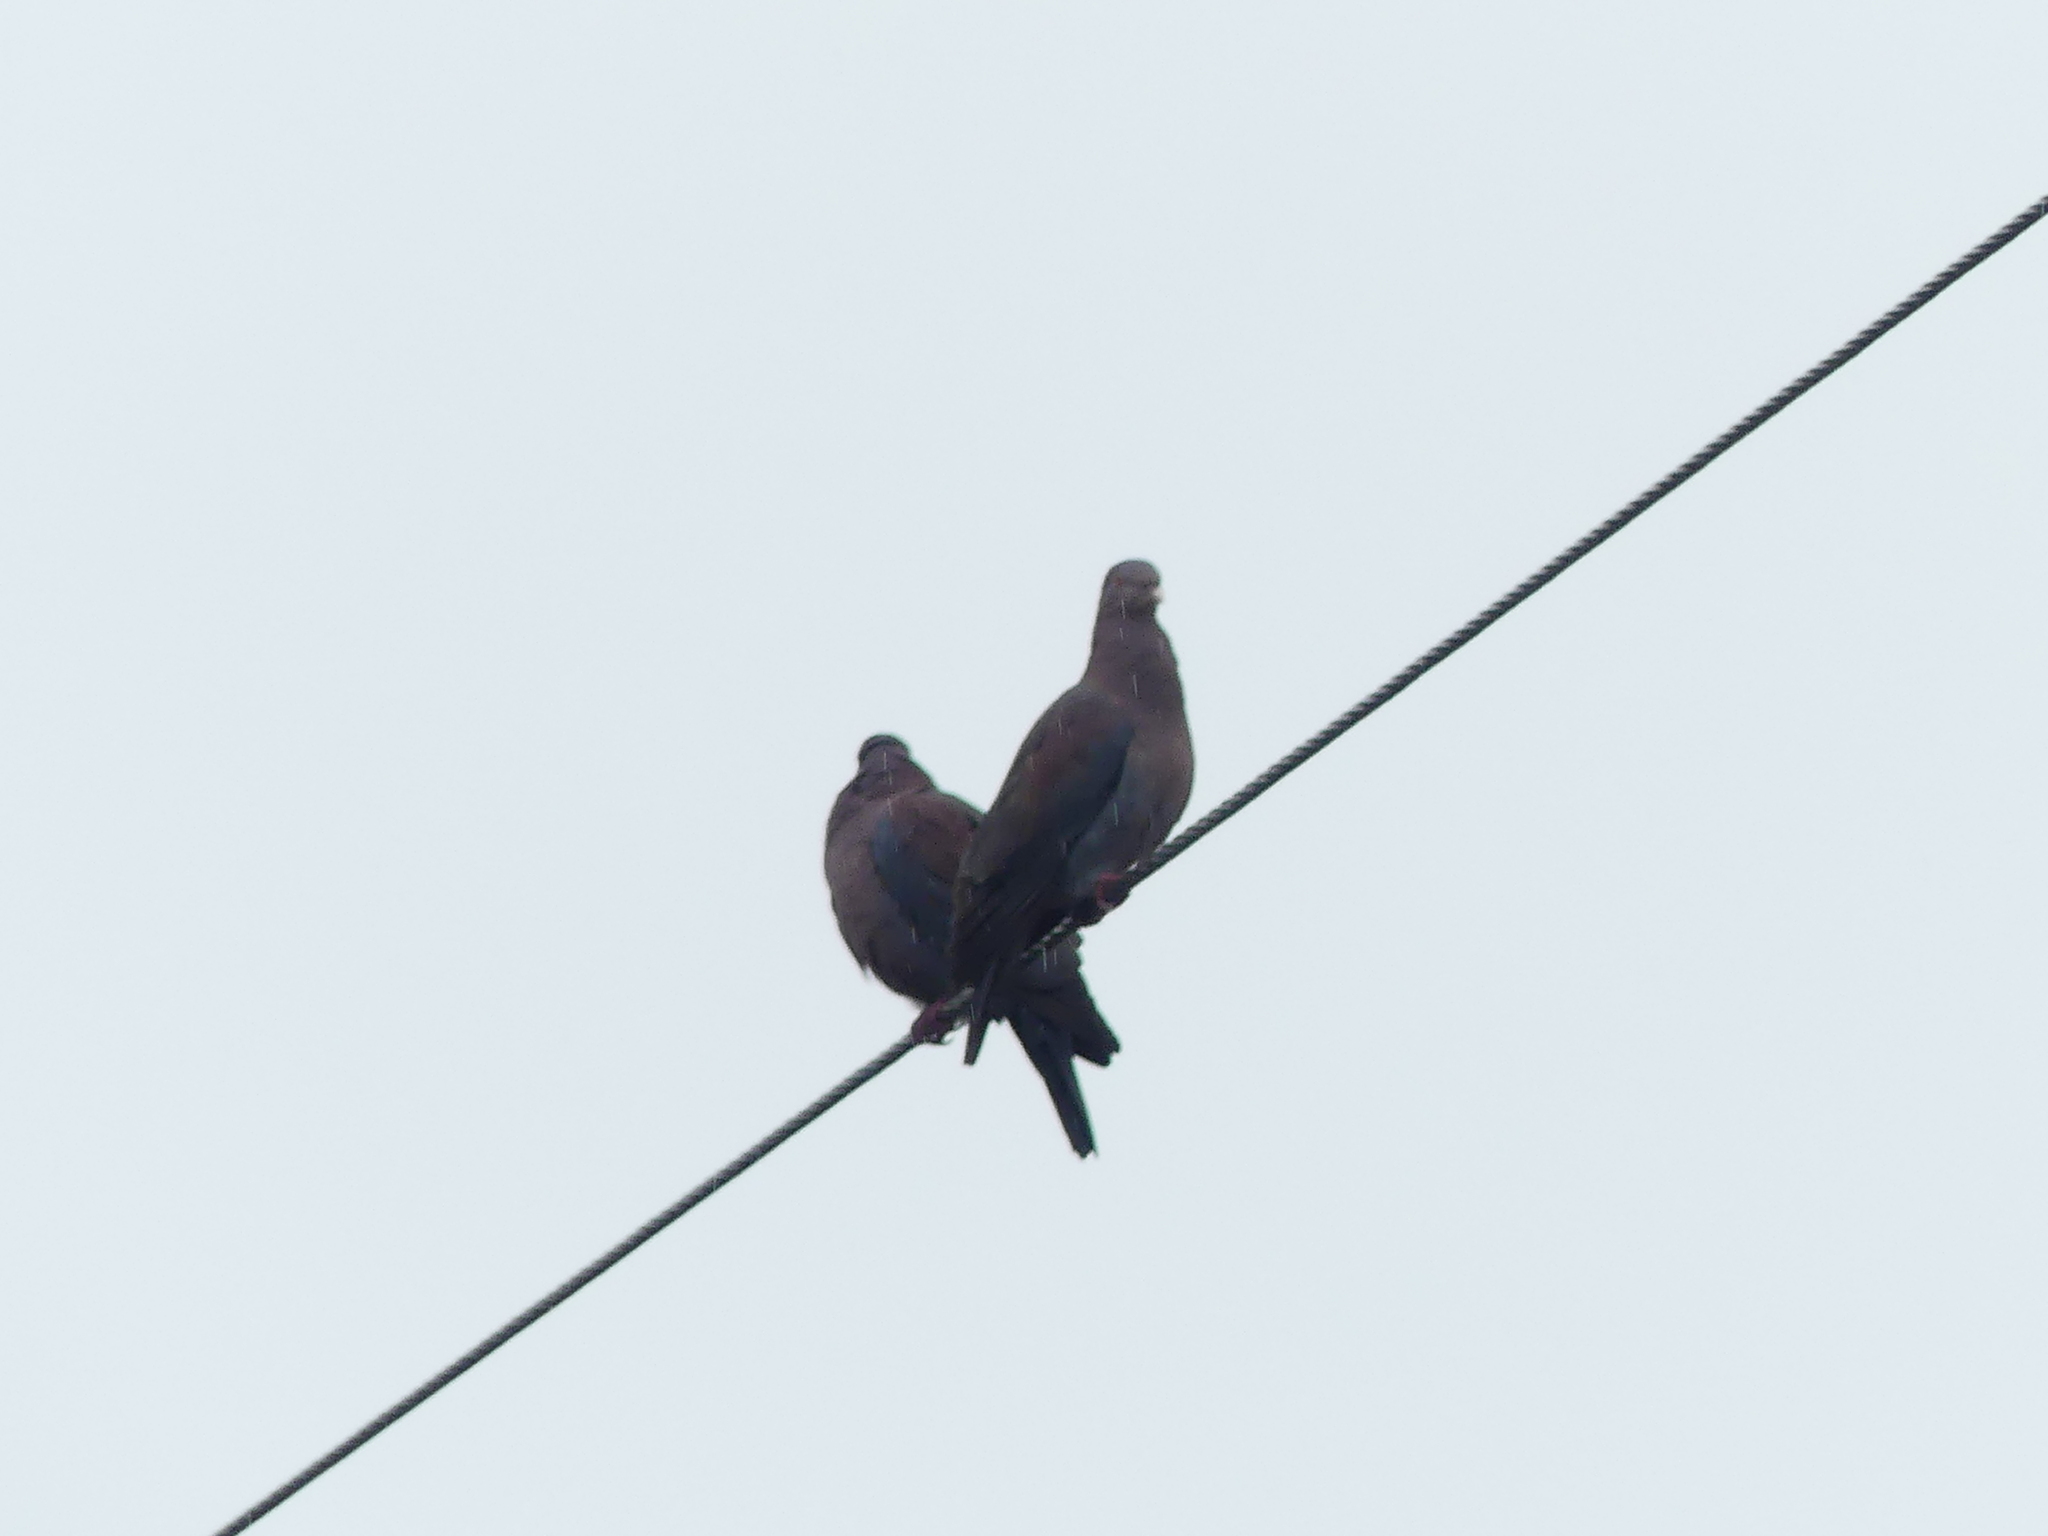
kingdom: Animalia
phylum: Chordata
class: Aves
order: Columbiformes
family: Columbidae
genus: Patagioenas
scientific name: Patagioenas flavirostris
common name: Red-billed pigeon
